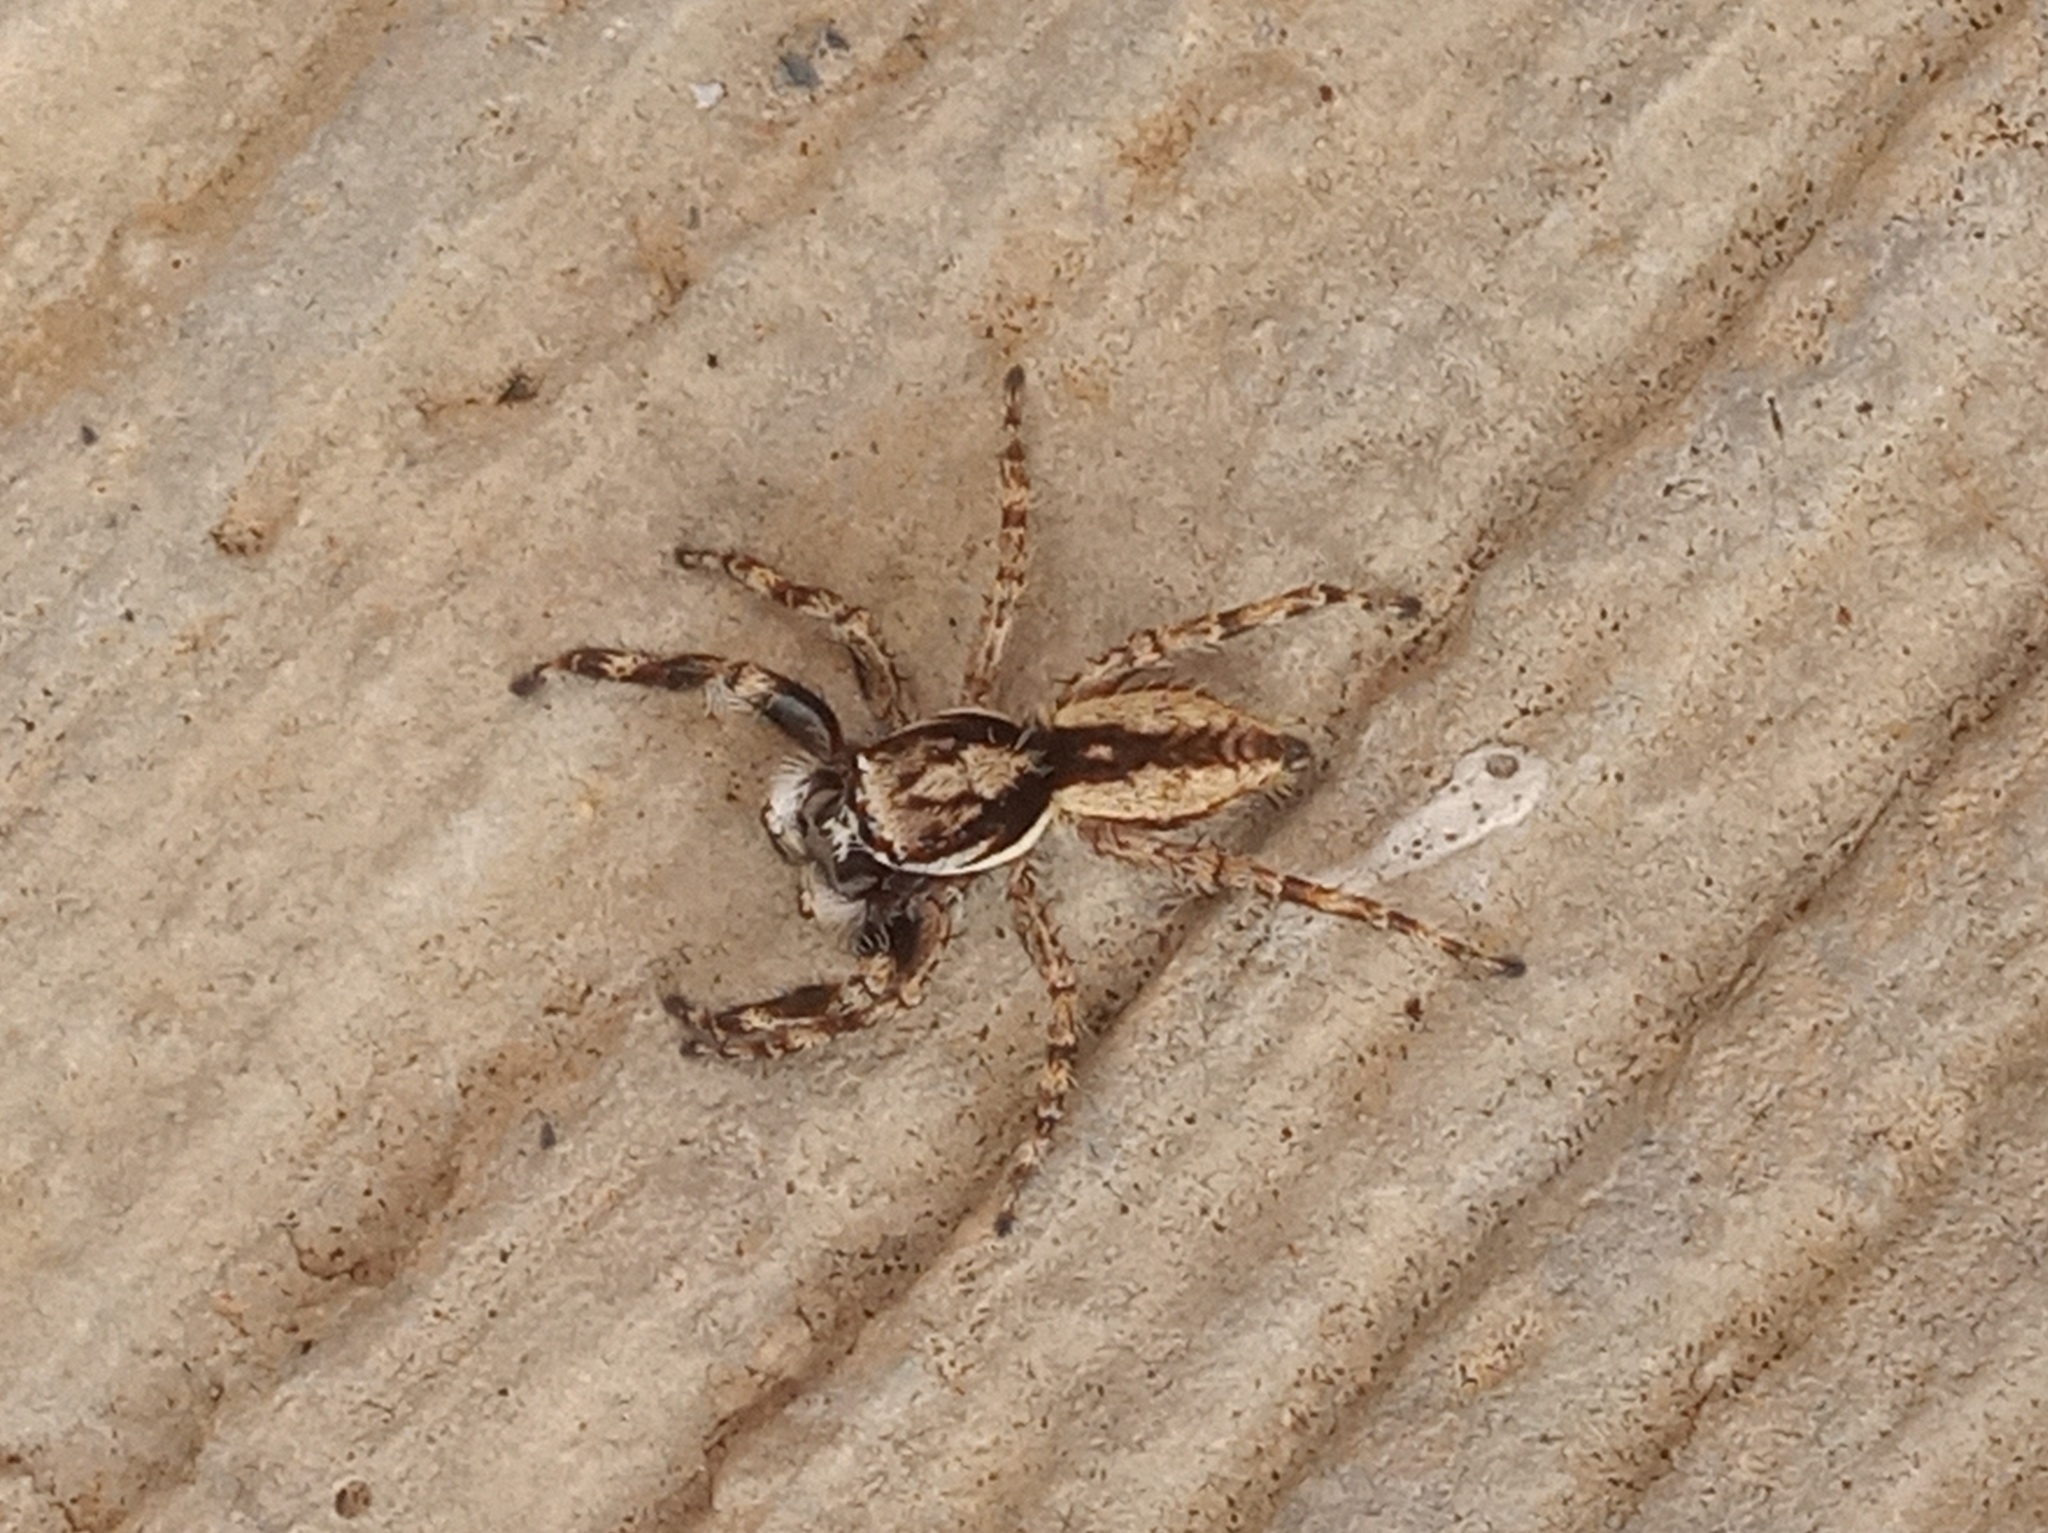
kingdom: Animalia
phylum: Arthropoda
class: Arachnida
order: Araneae
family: Salticidae
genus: Menemerus
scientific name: Menemerus bivittatus
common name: Gray wall jumper
